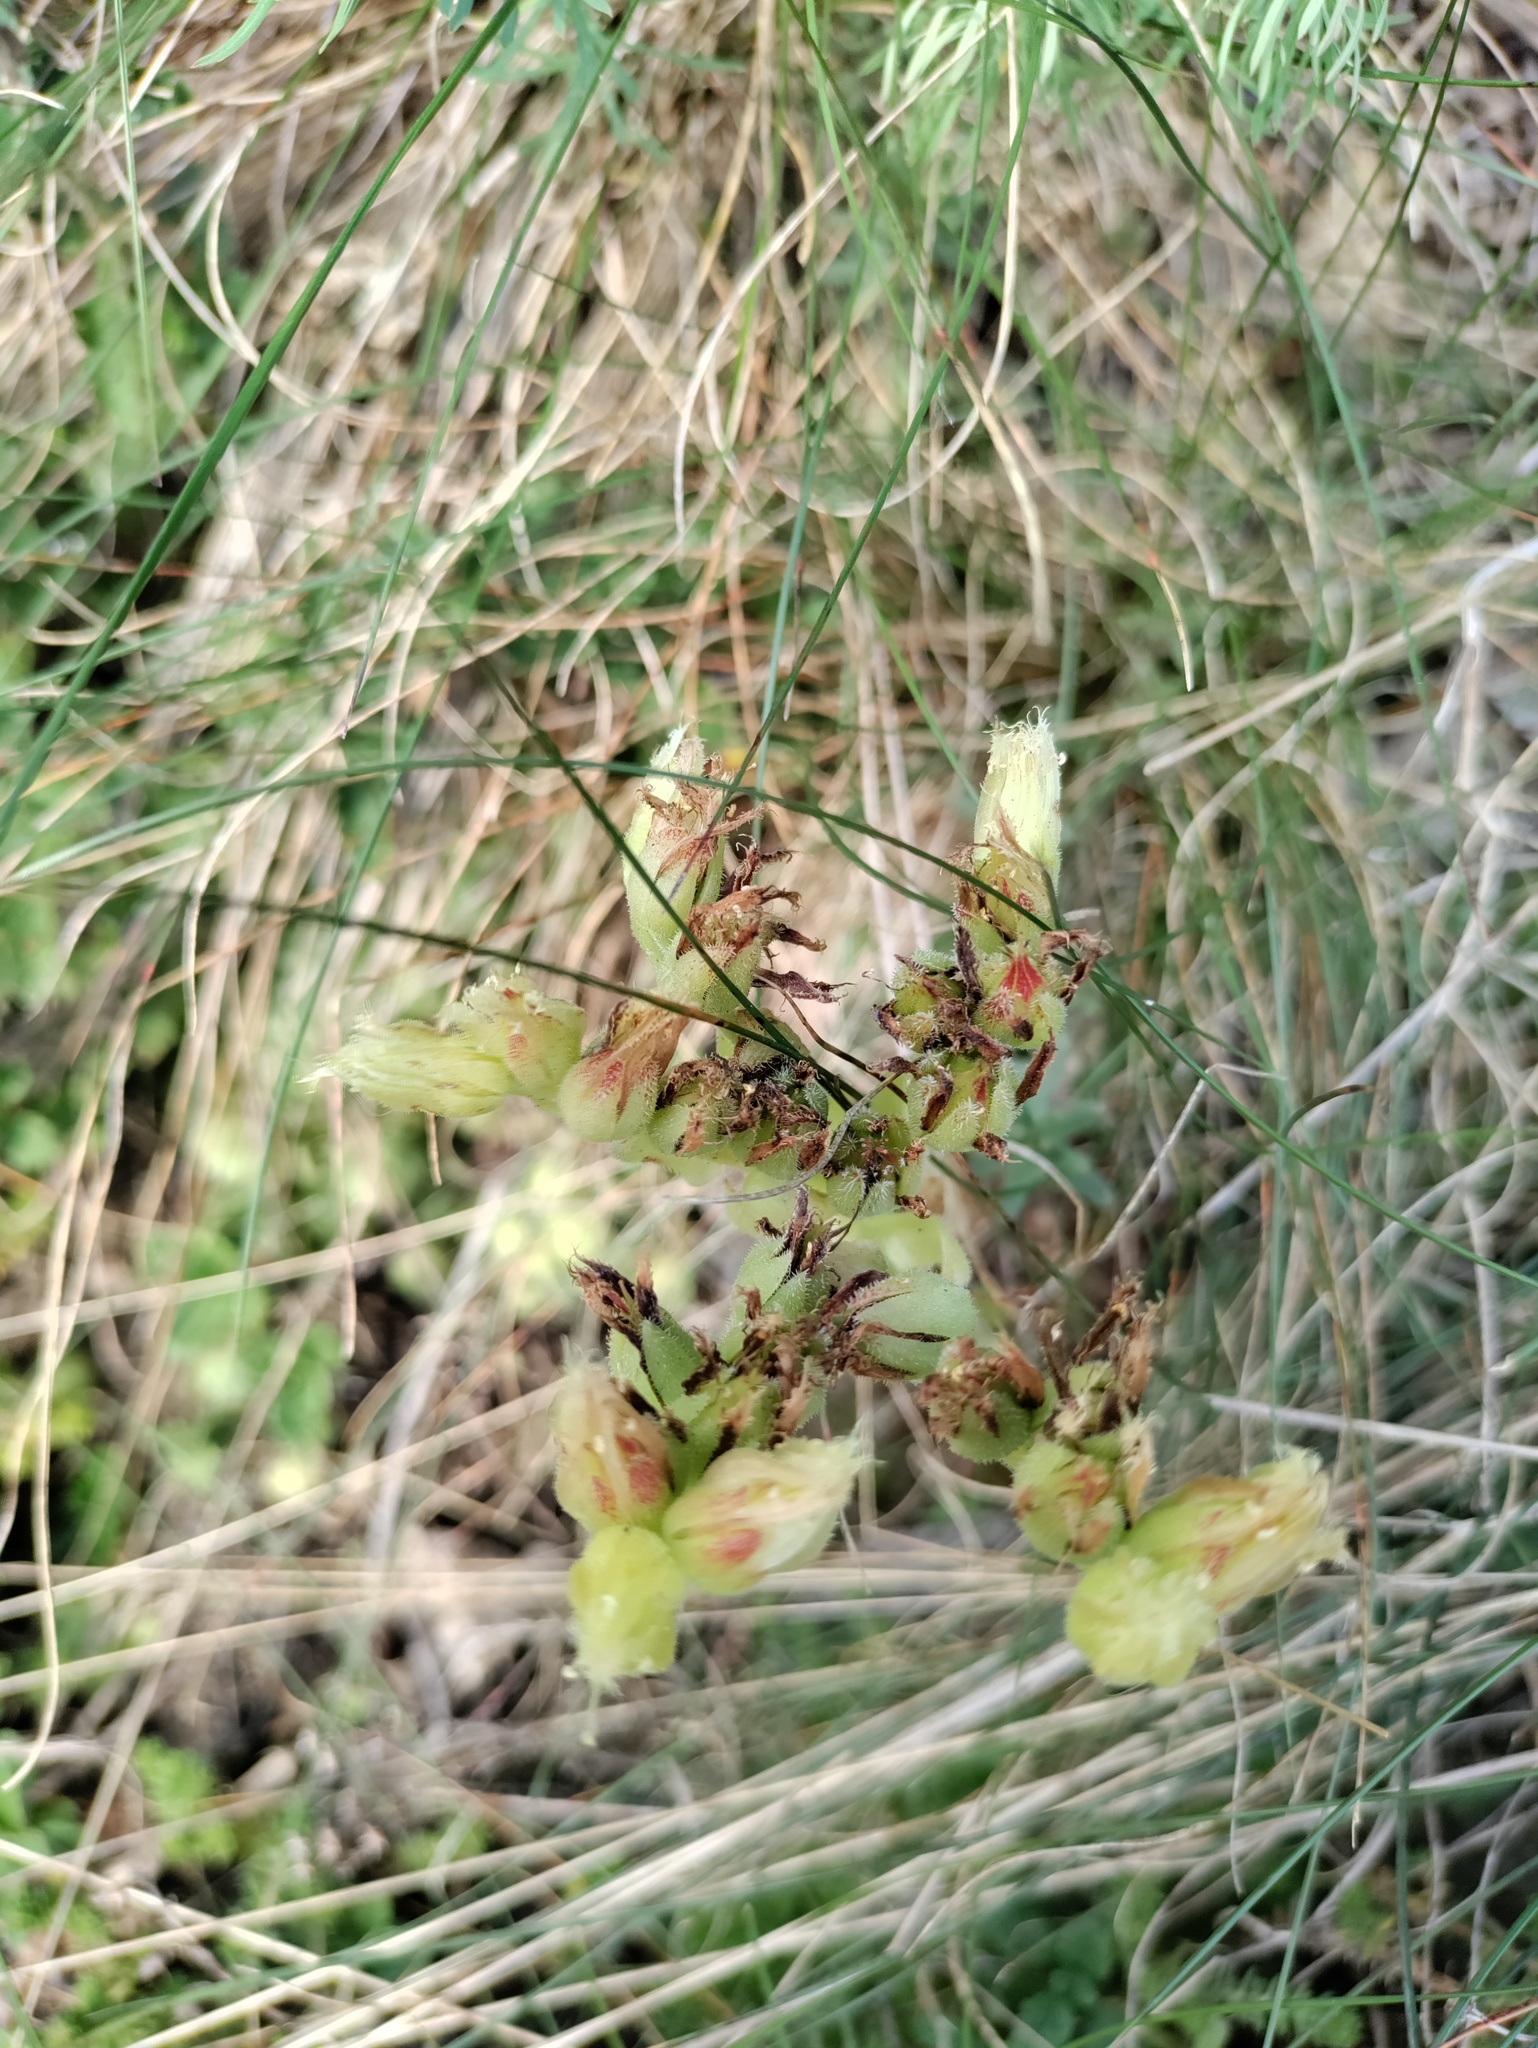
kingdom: Plantae
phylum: Tracheophyta
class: Magnoliopsida
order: Saxifragales
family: Crassulaceae
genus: Sempervivum
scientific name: Sempervivum globiferum
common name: Rolling hen-and-chicks
